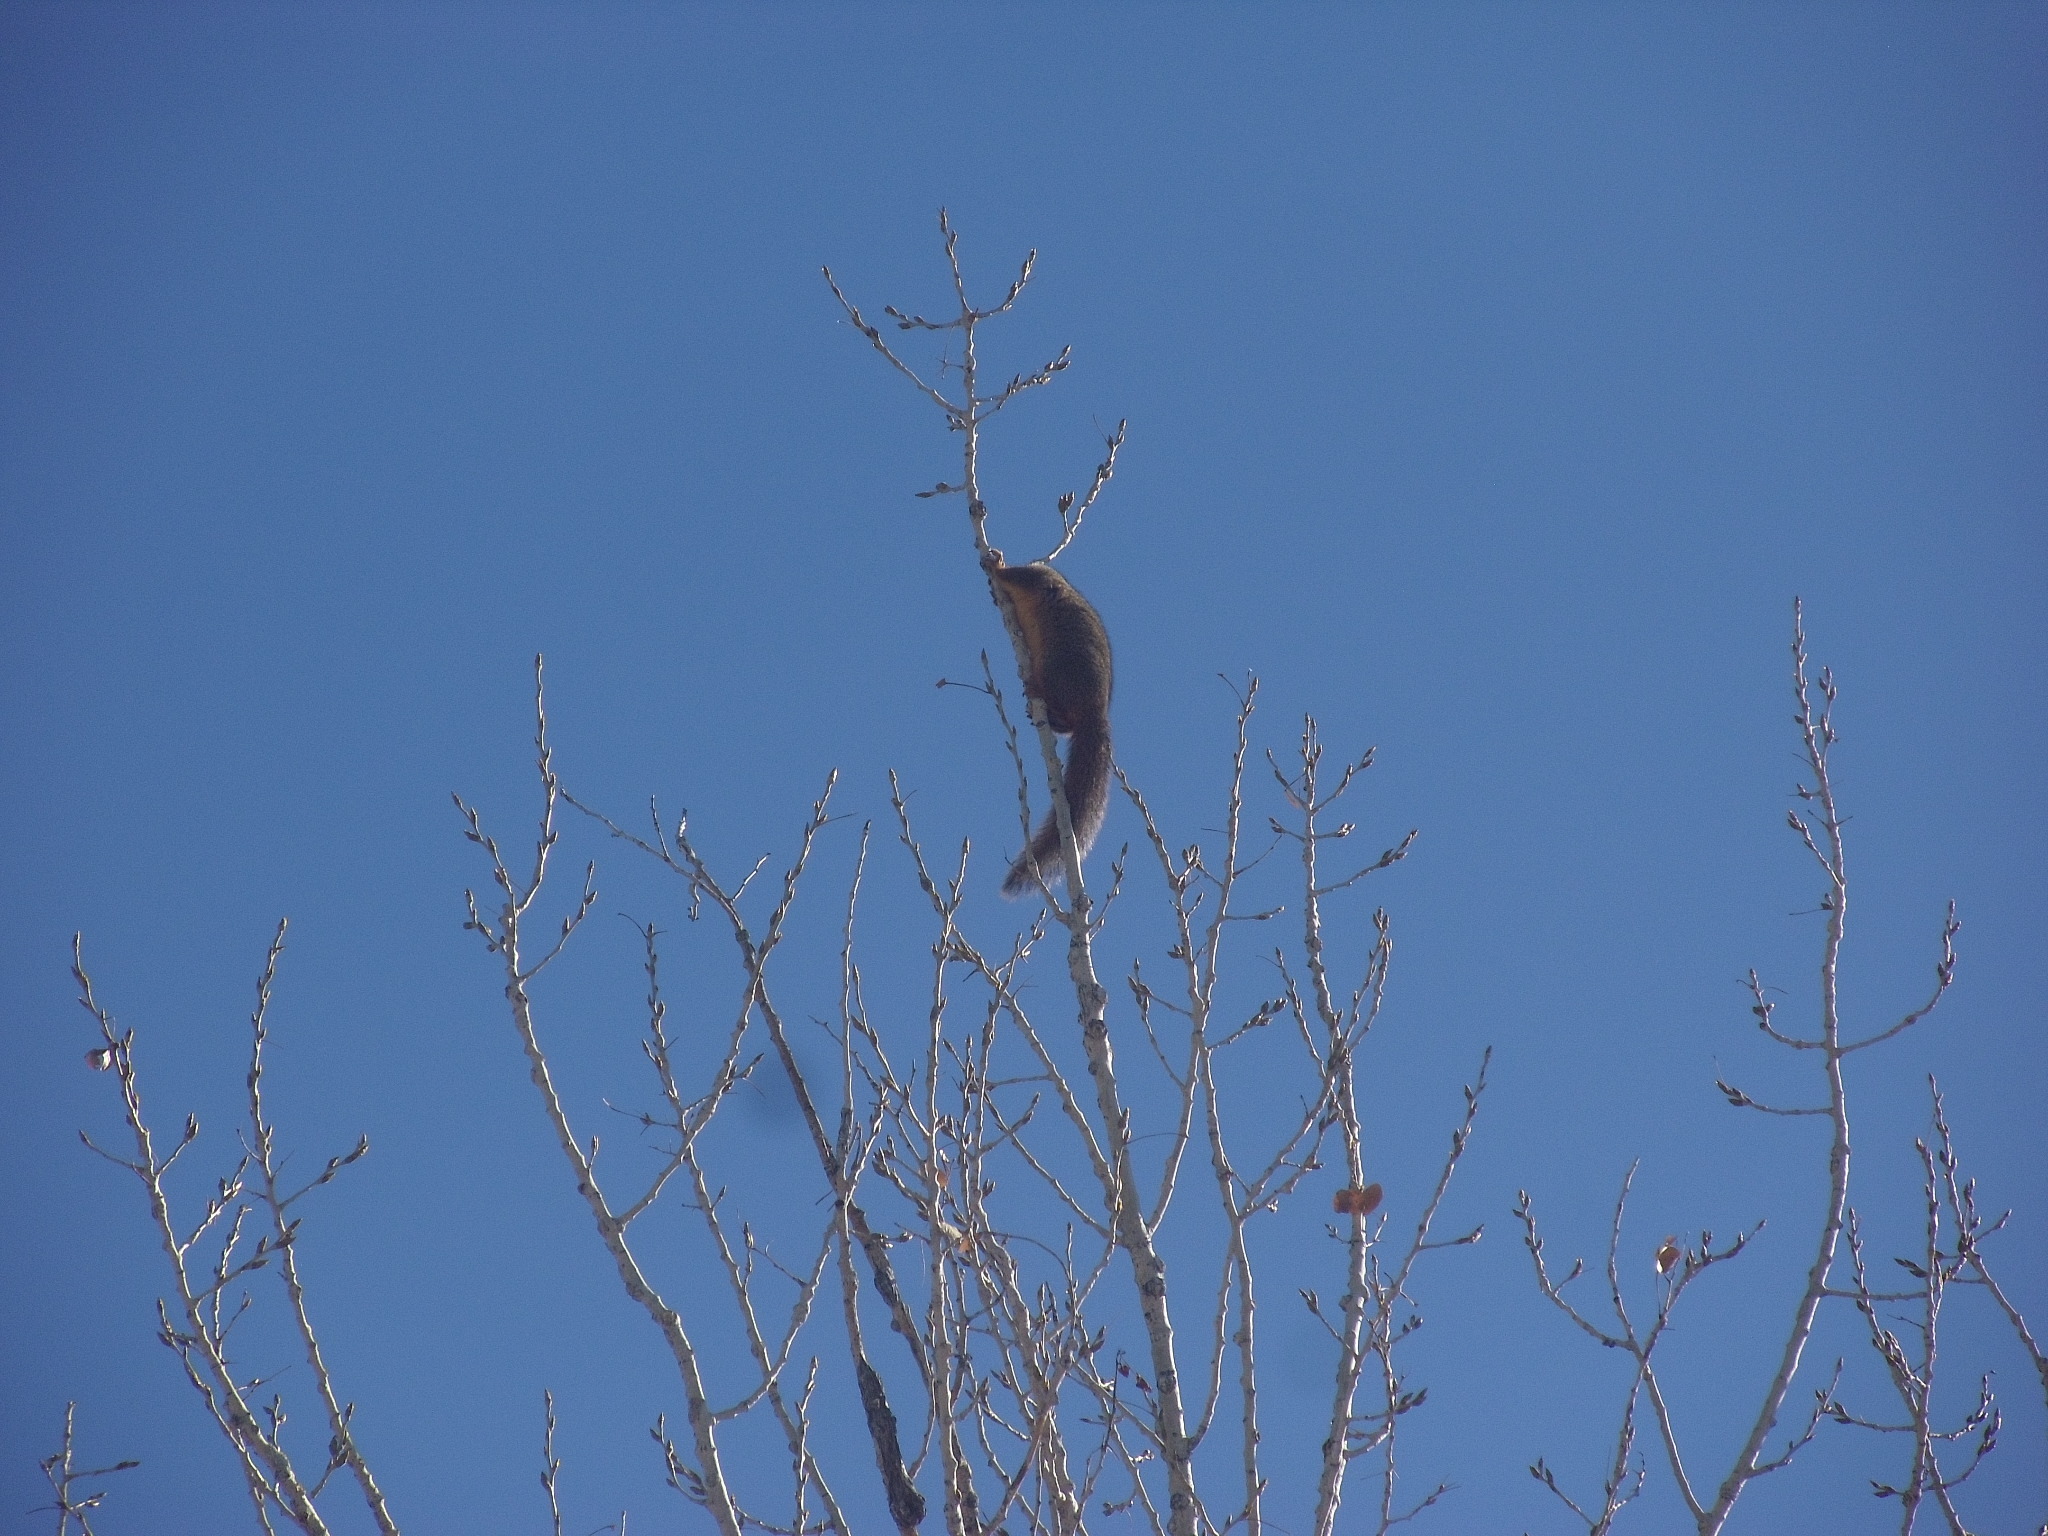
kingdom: Animalia
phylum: Chordata
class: Mammalia
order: Rodentia
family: Sciuridae
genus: Sciurus
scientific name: Sciurus niger
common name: Fox squirrel
